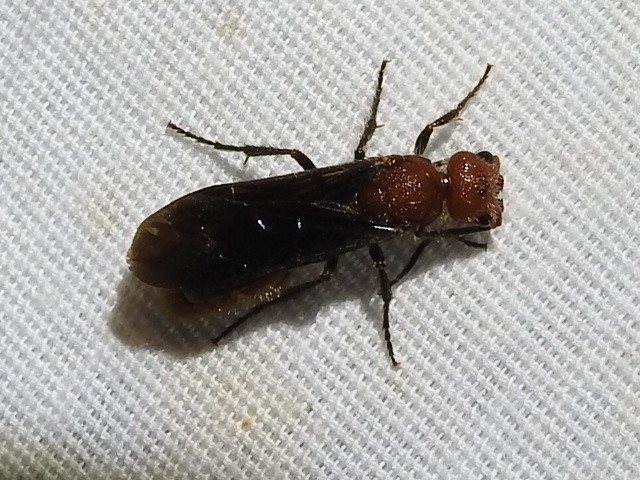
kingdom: Animalia
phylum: Arthropoda
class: Insecta
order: Hymenoptera
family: Mutillidae
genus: Sphaeropthalma
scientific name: Sphaeropthalma
